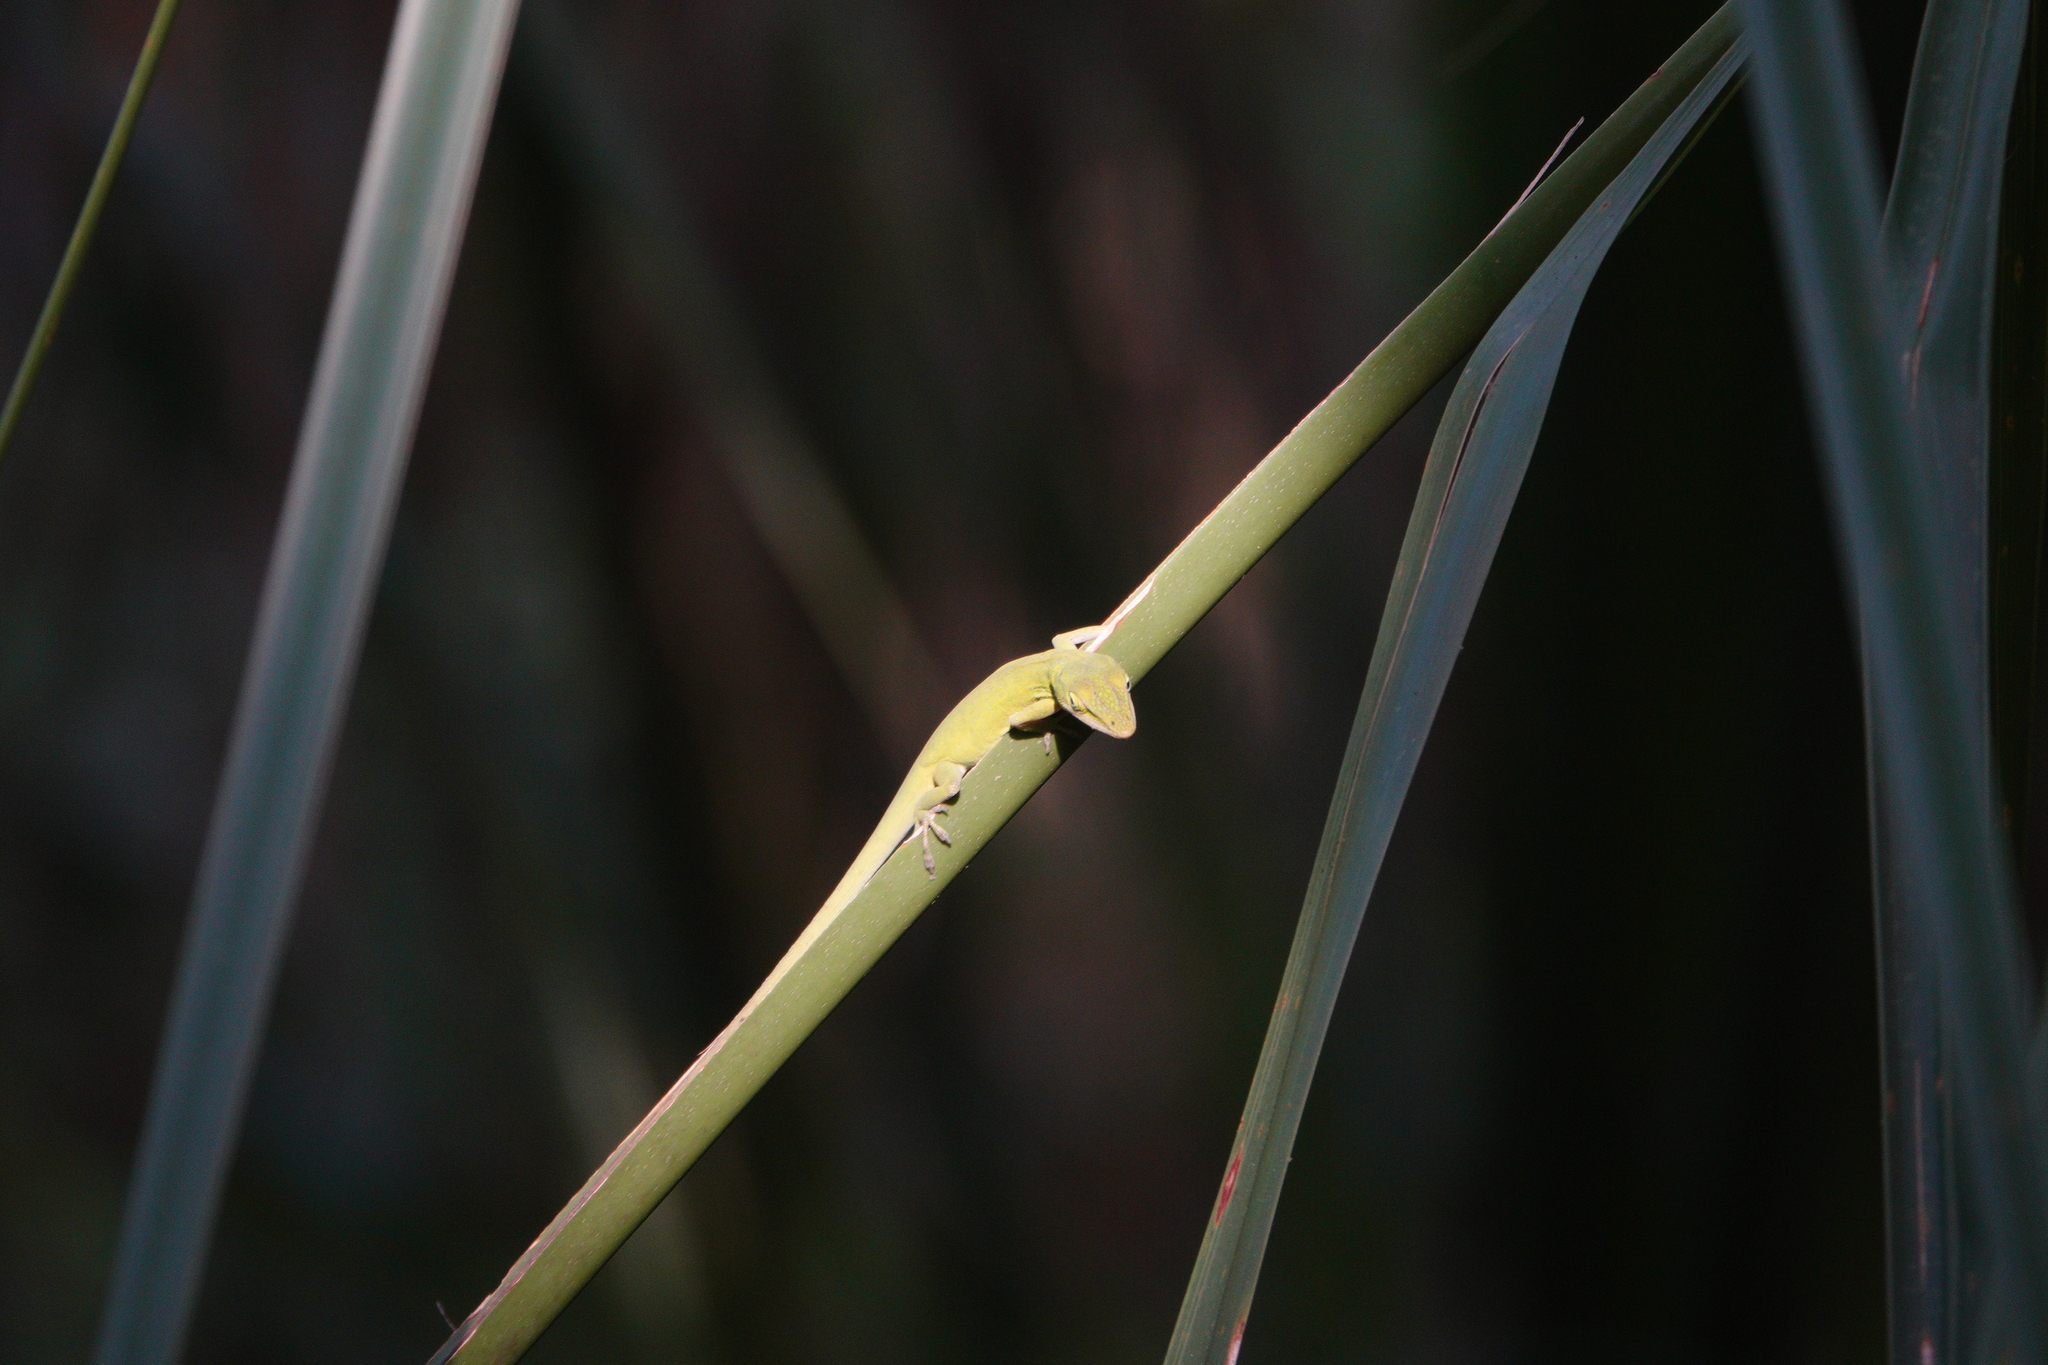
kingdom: Animalia
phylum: Chordata
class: Squamata
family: Dactyloidae
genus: Anolis
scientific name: Anolis carolinensis
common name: Green anole
